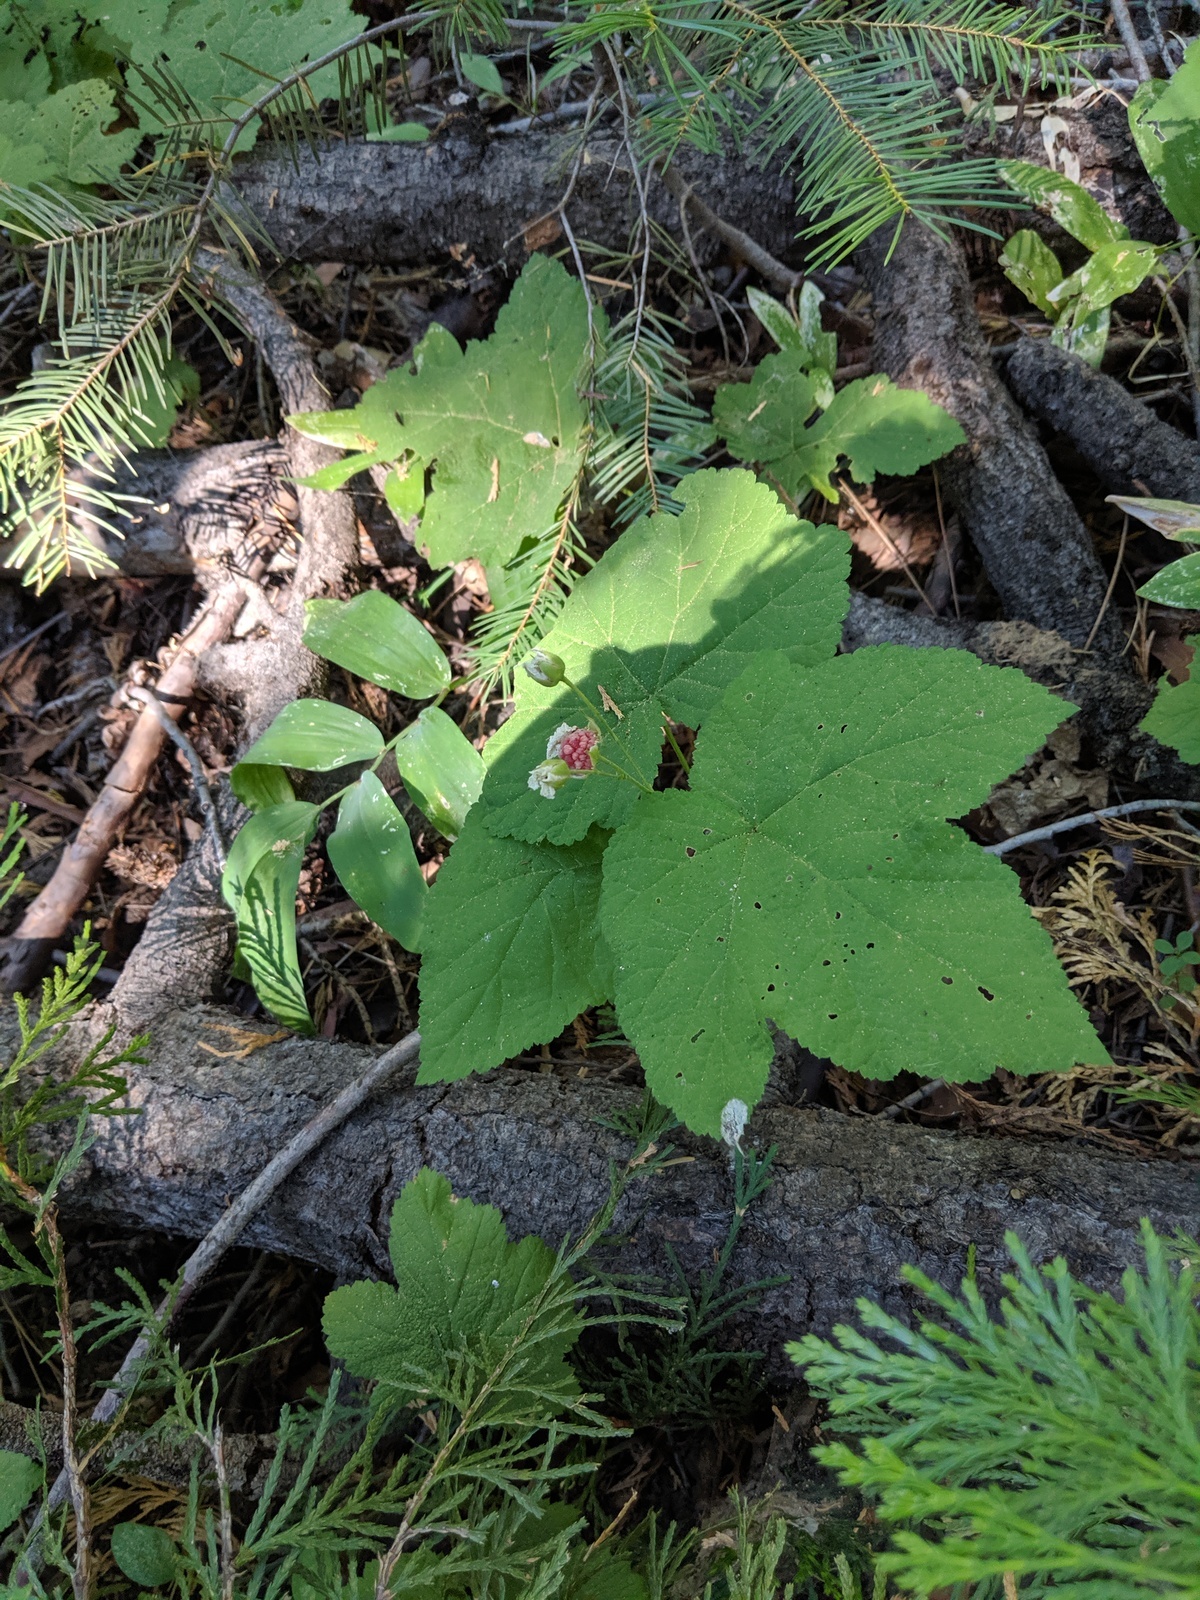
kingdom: Plantae
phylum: Tracheophyta
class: Magnoliopsida
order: Rosales
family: Rosaceae
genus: Rubus
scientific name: Rubus parviflorus
